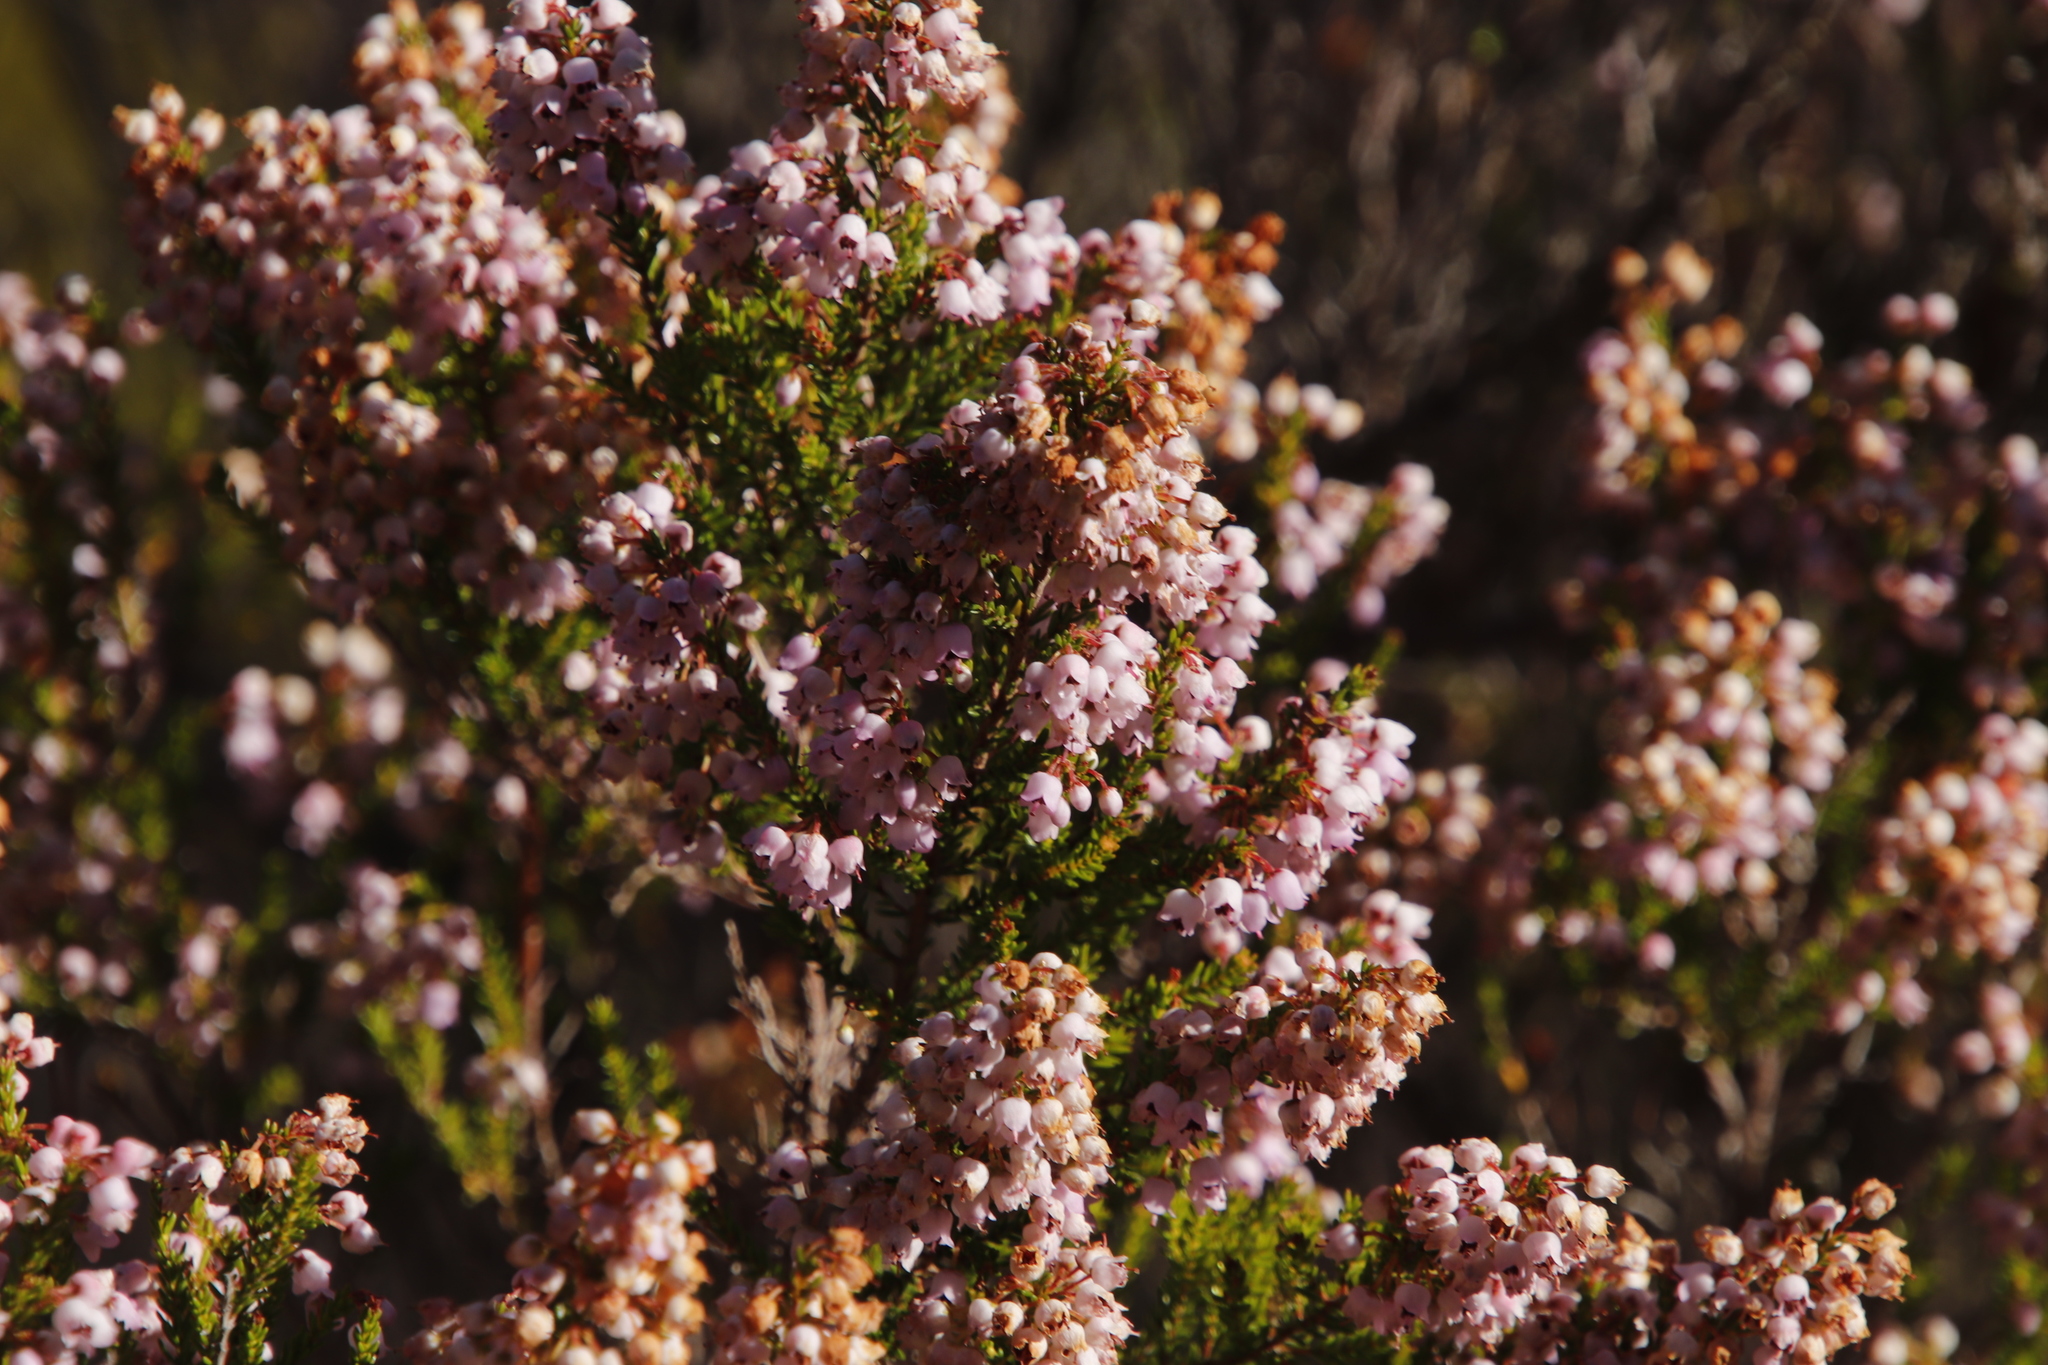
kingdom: Plantae
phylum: Tracheophyta
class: Magnoliopsida
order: Ericales
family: Ericaceae
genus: Erica
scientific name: Erica curvirostris
